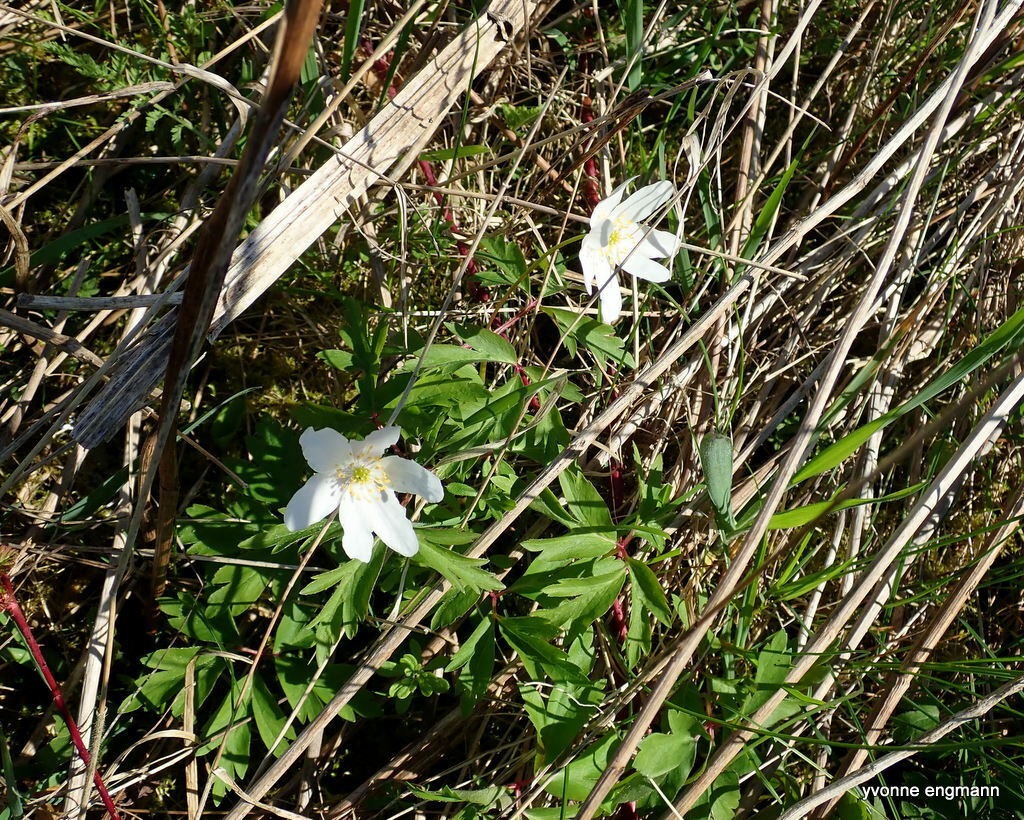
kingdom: Plantae
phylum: Tracheophyta
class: Magnoliopsida
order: Ranunculales
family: Ranunculaceae
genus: Anemone
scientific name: Anemone nemorosa
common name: Wood anemone
